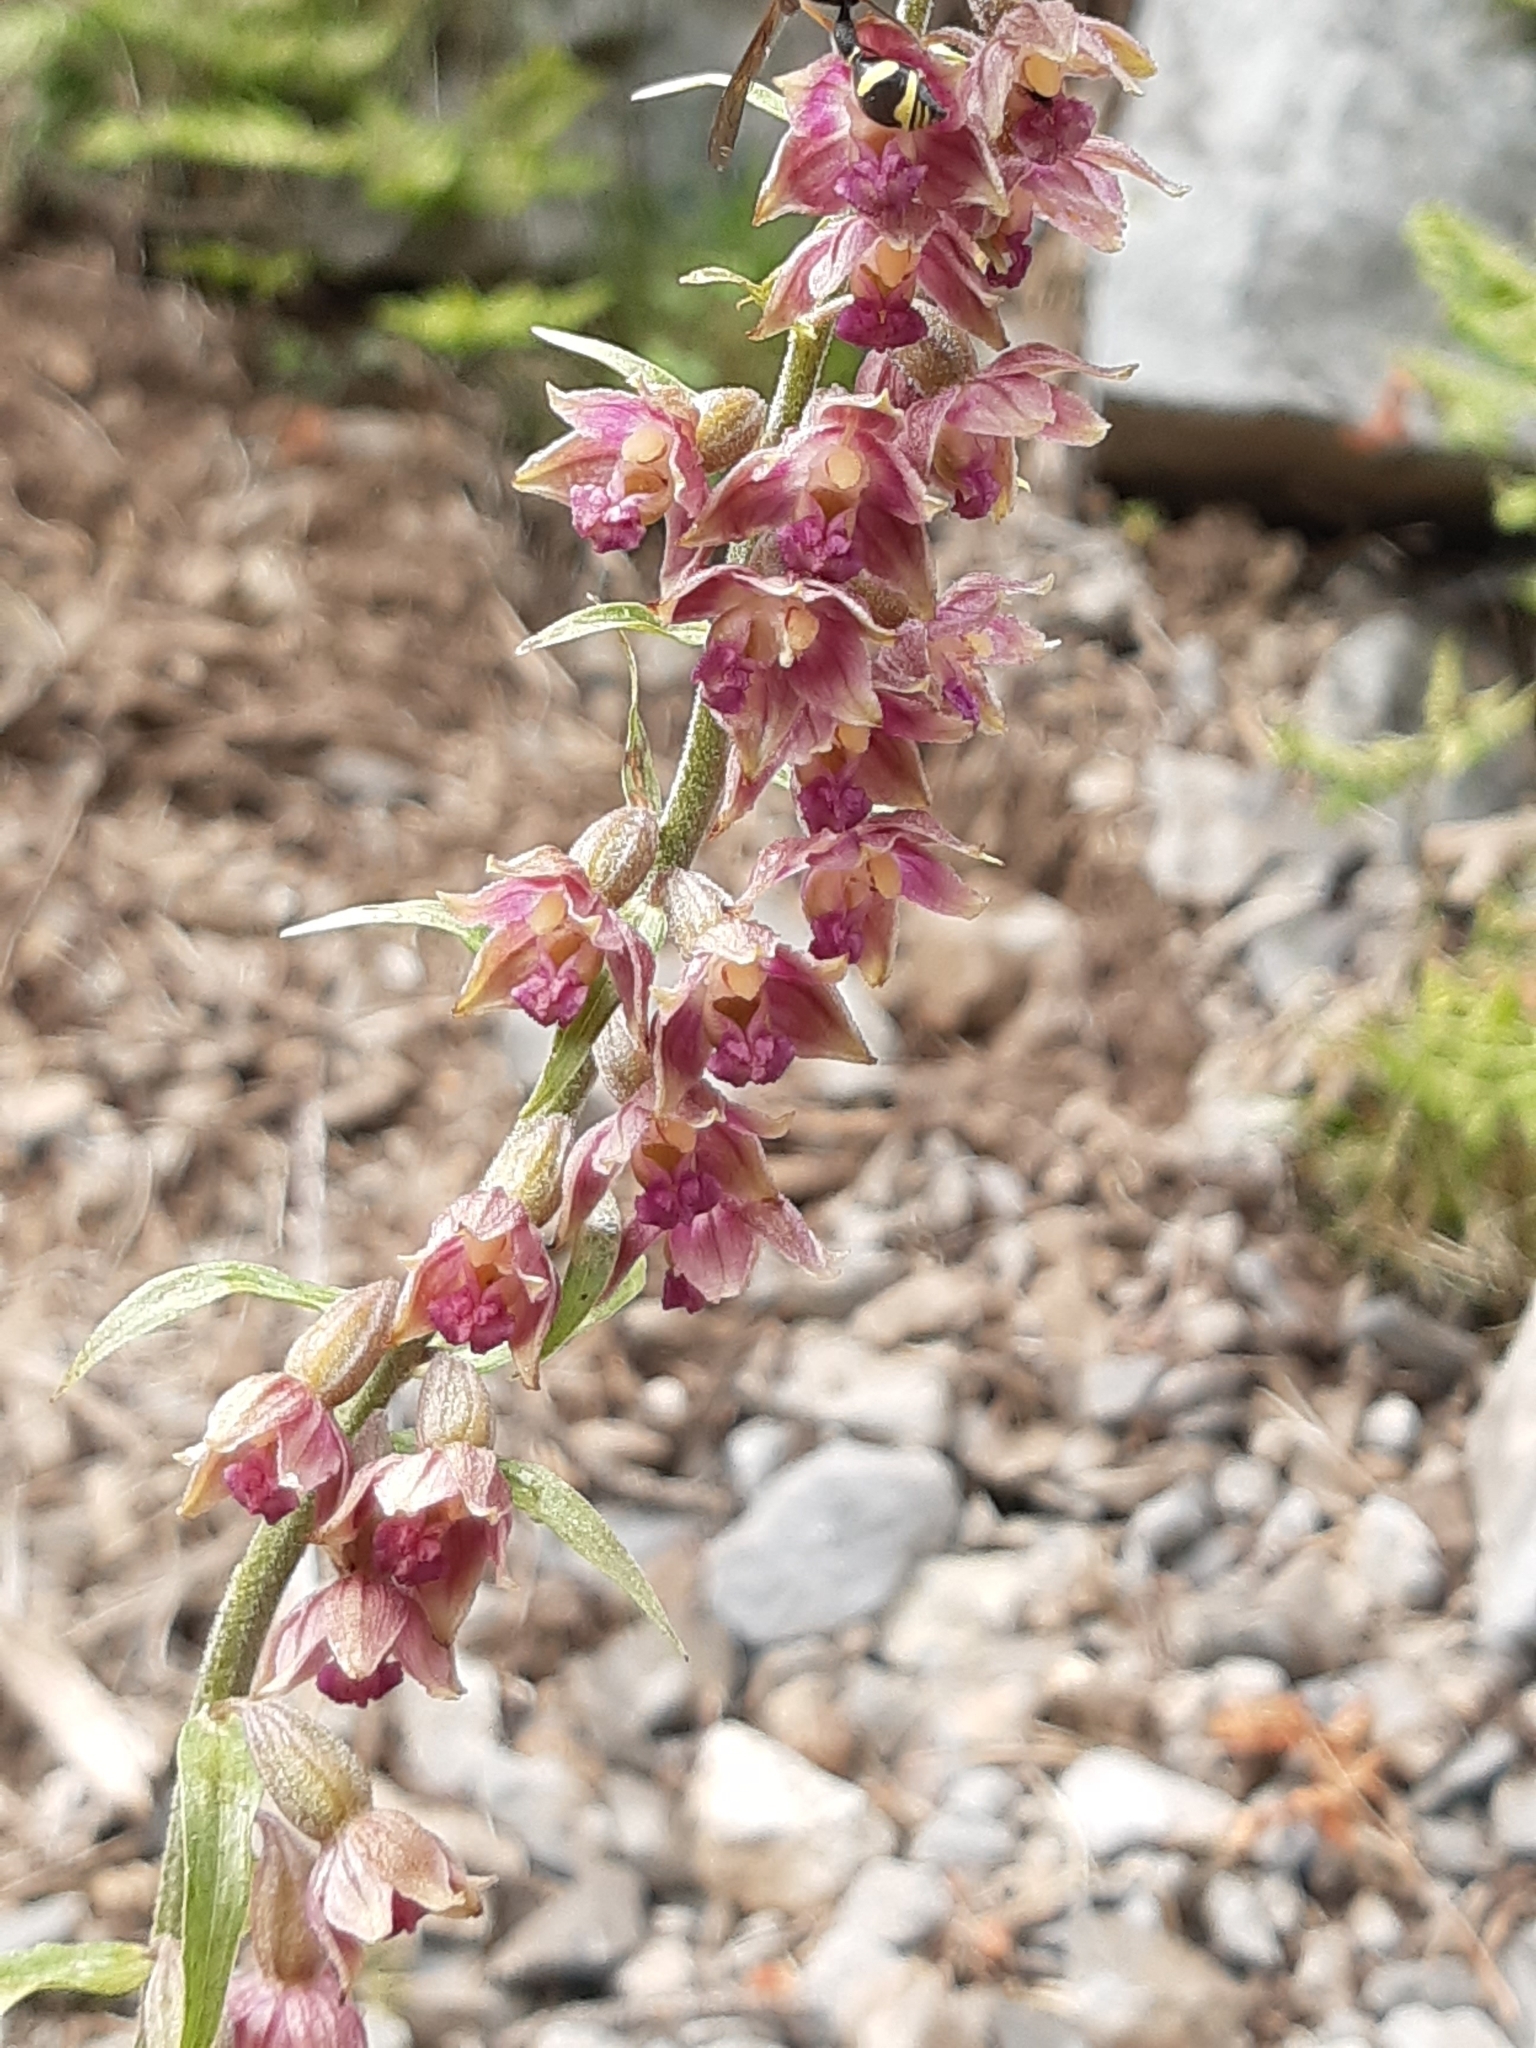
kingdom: Plantae
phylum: Tracheophyta
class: Liliopsida
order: Asparagales
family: Orchidaceae
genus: Epipactis
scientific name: Epipactis atrorubens
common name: Dark-red helleborine
